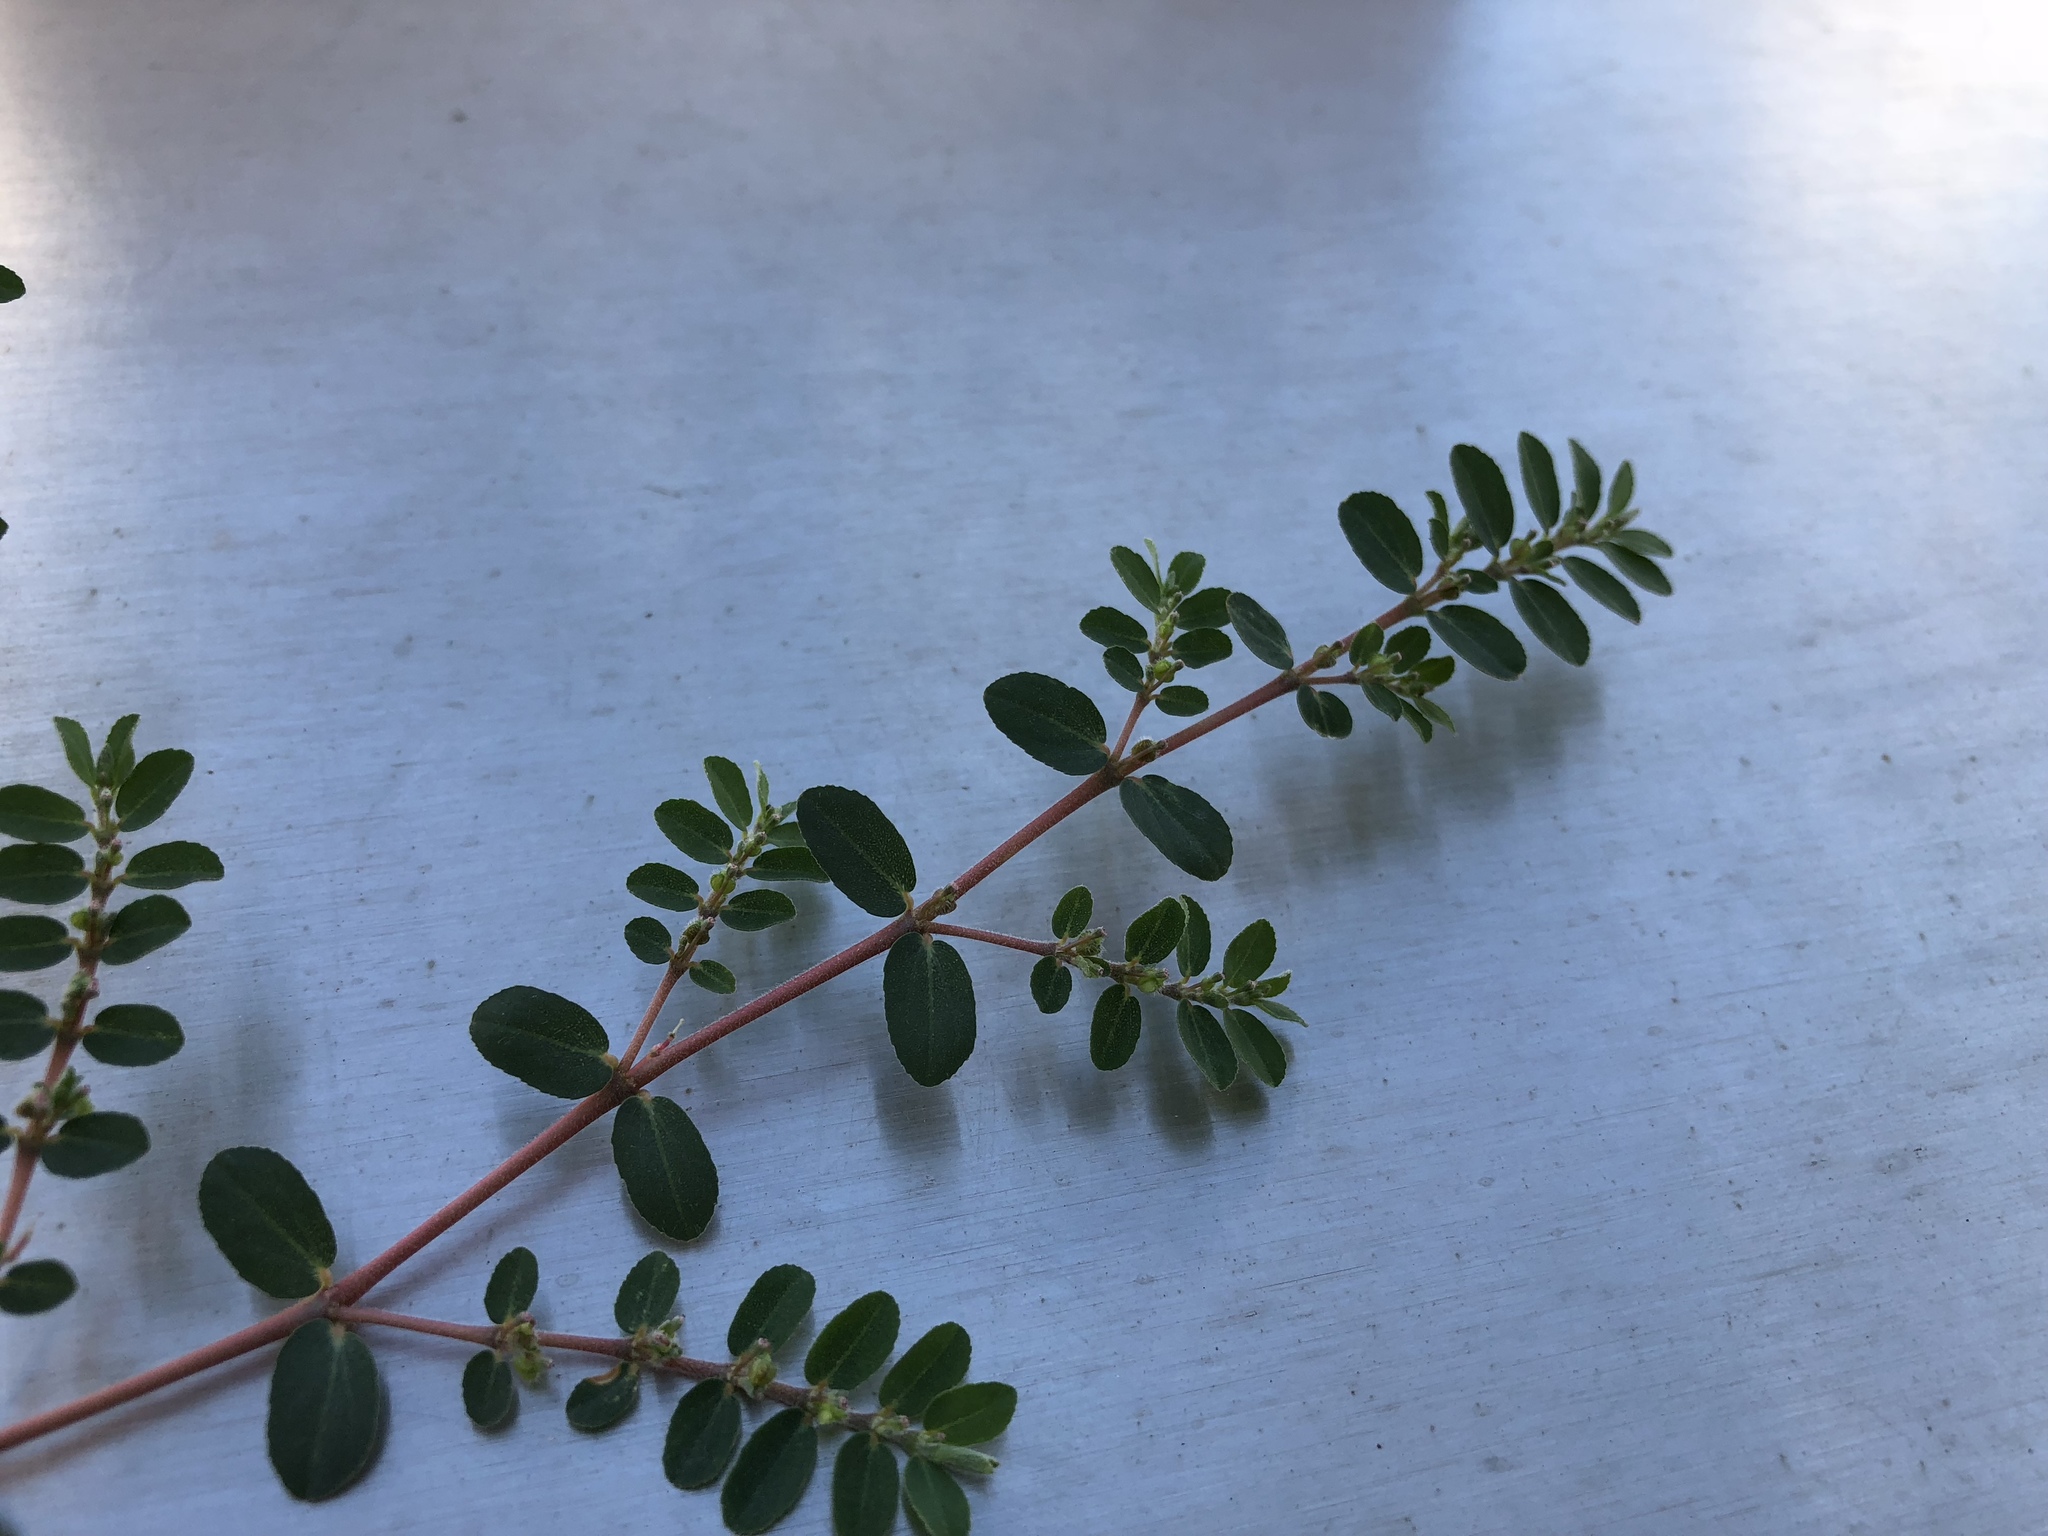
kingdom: Plantae
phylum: Tracheophyta
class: Magnoliopsida
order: Malpighiales
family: Euphorbiaceae
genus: Euphorbia
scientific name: Euphorbia prostrata
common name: Prostrate sandmat
